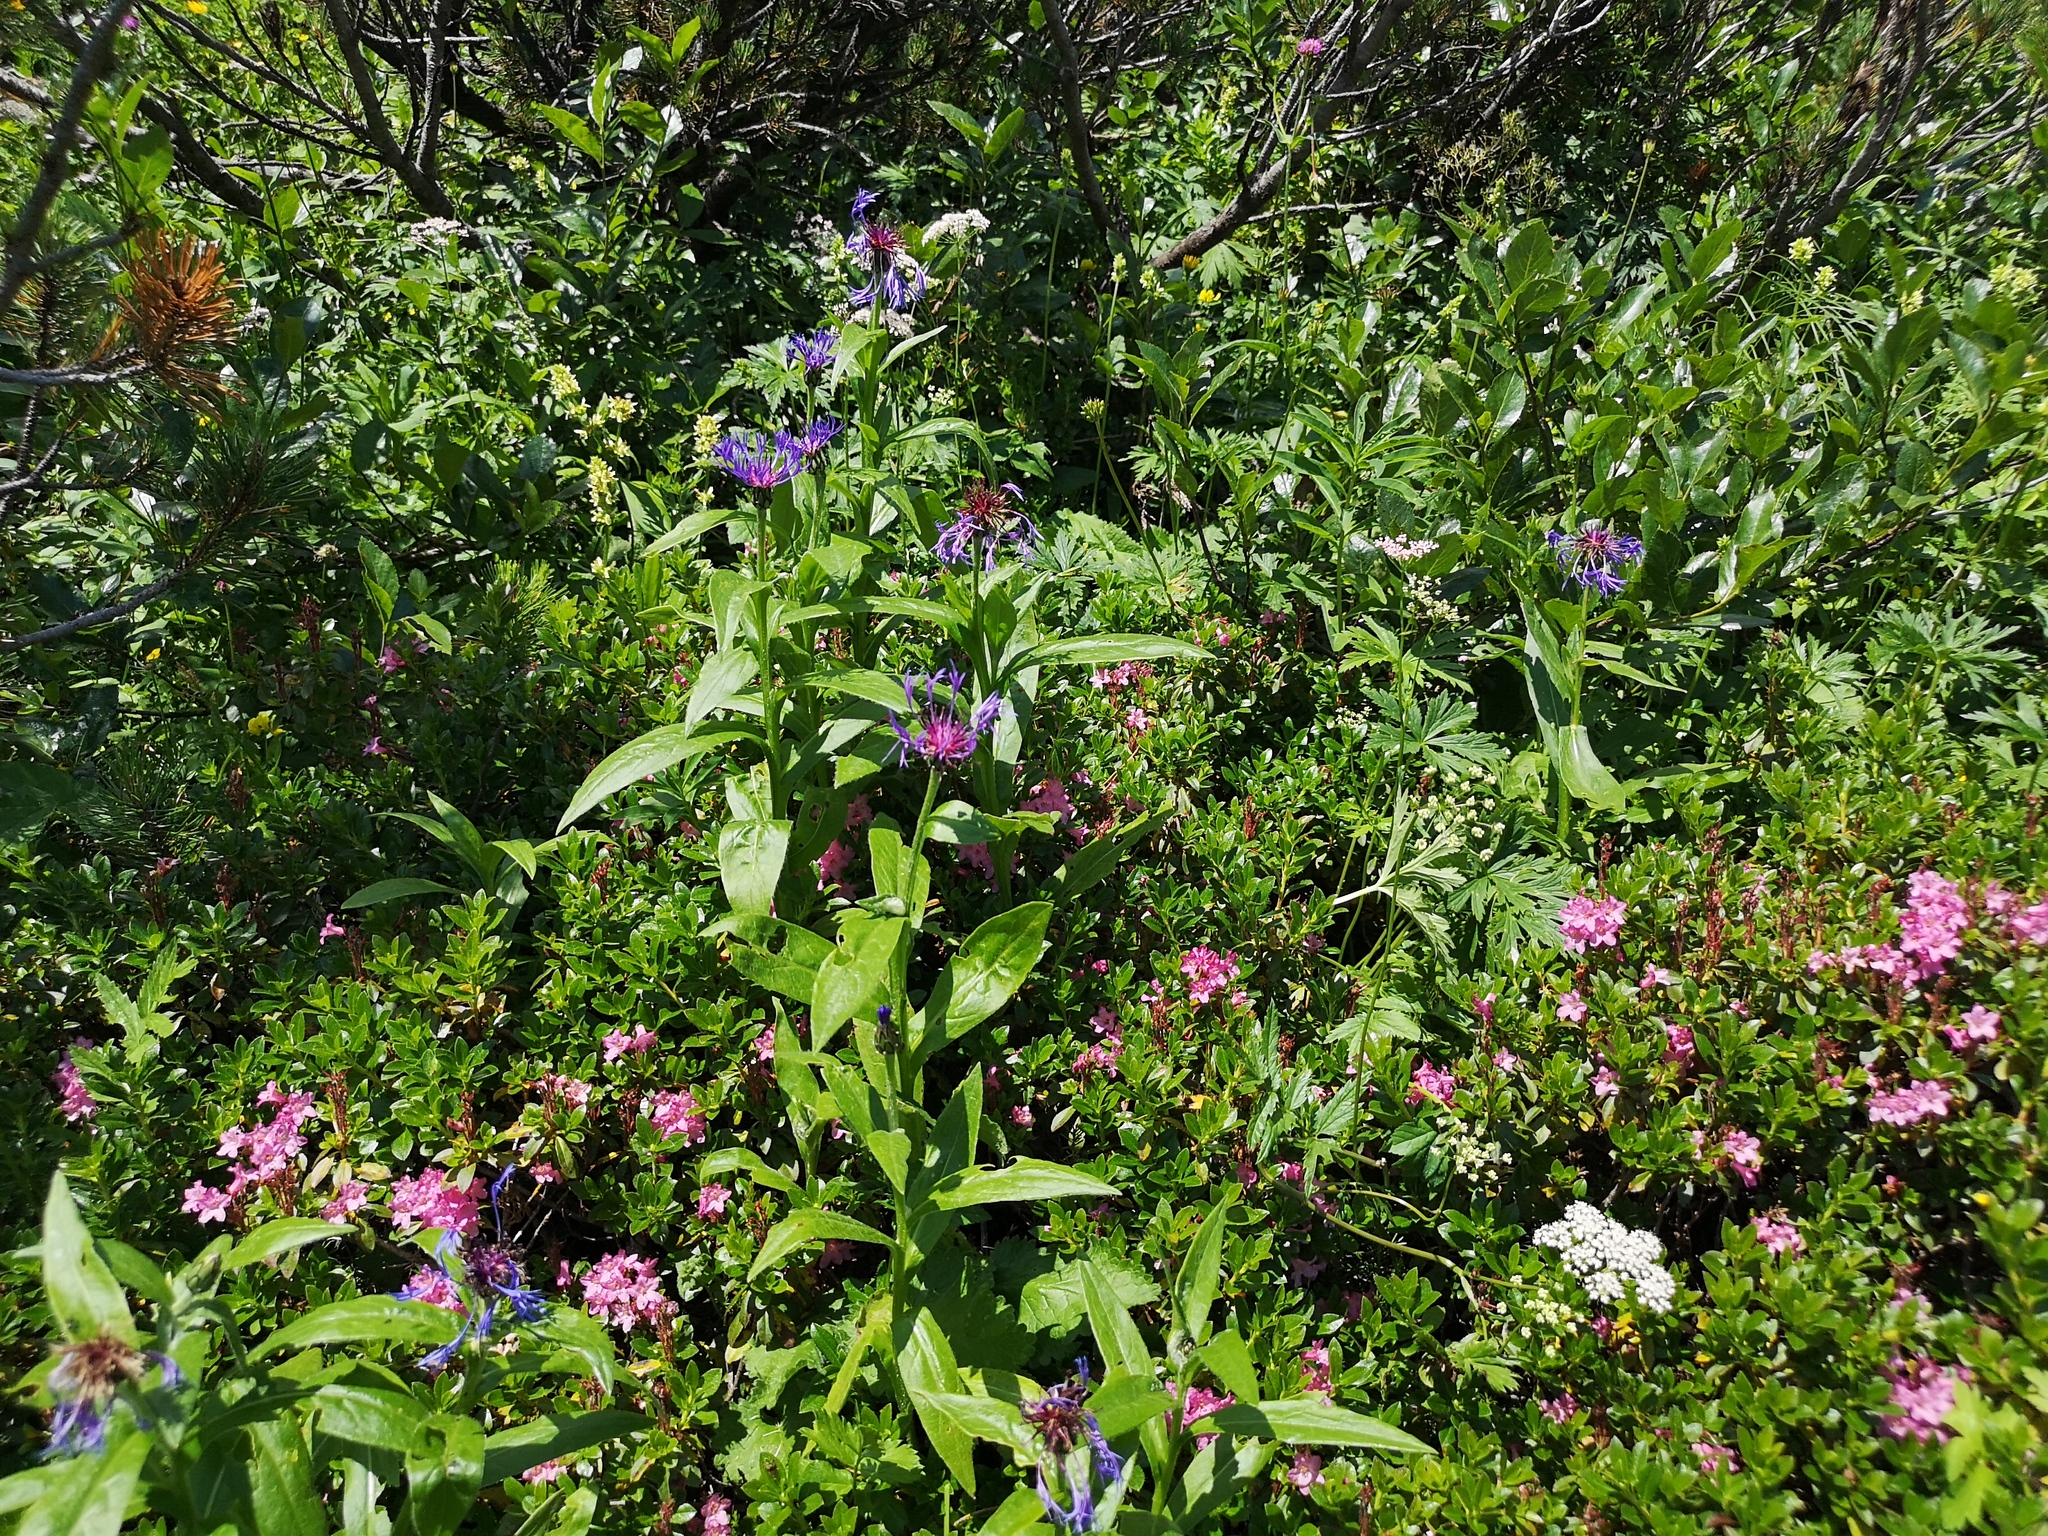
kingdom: Plantae
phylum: Tracheophyta
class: Magnoliopsida
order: Asterales
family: Asteraceae
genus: Centaurea
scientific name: Centaurea montana
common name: Perennial cornflower
